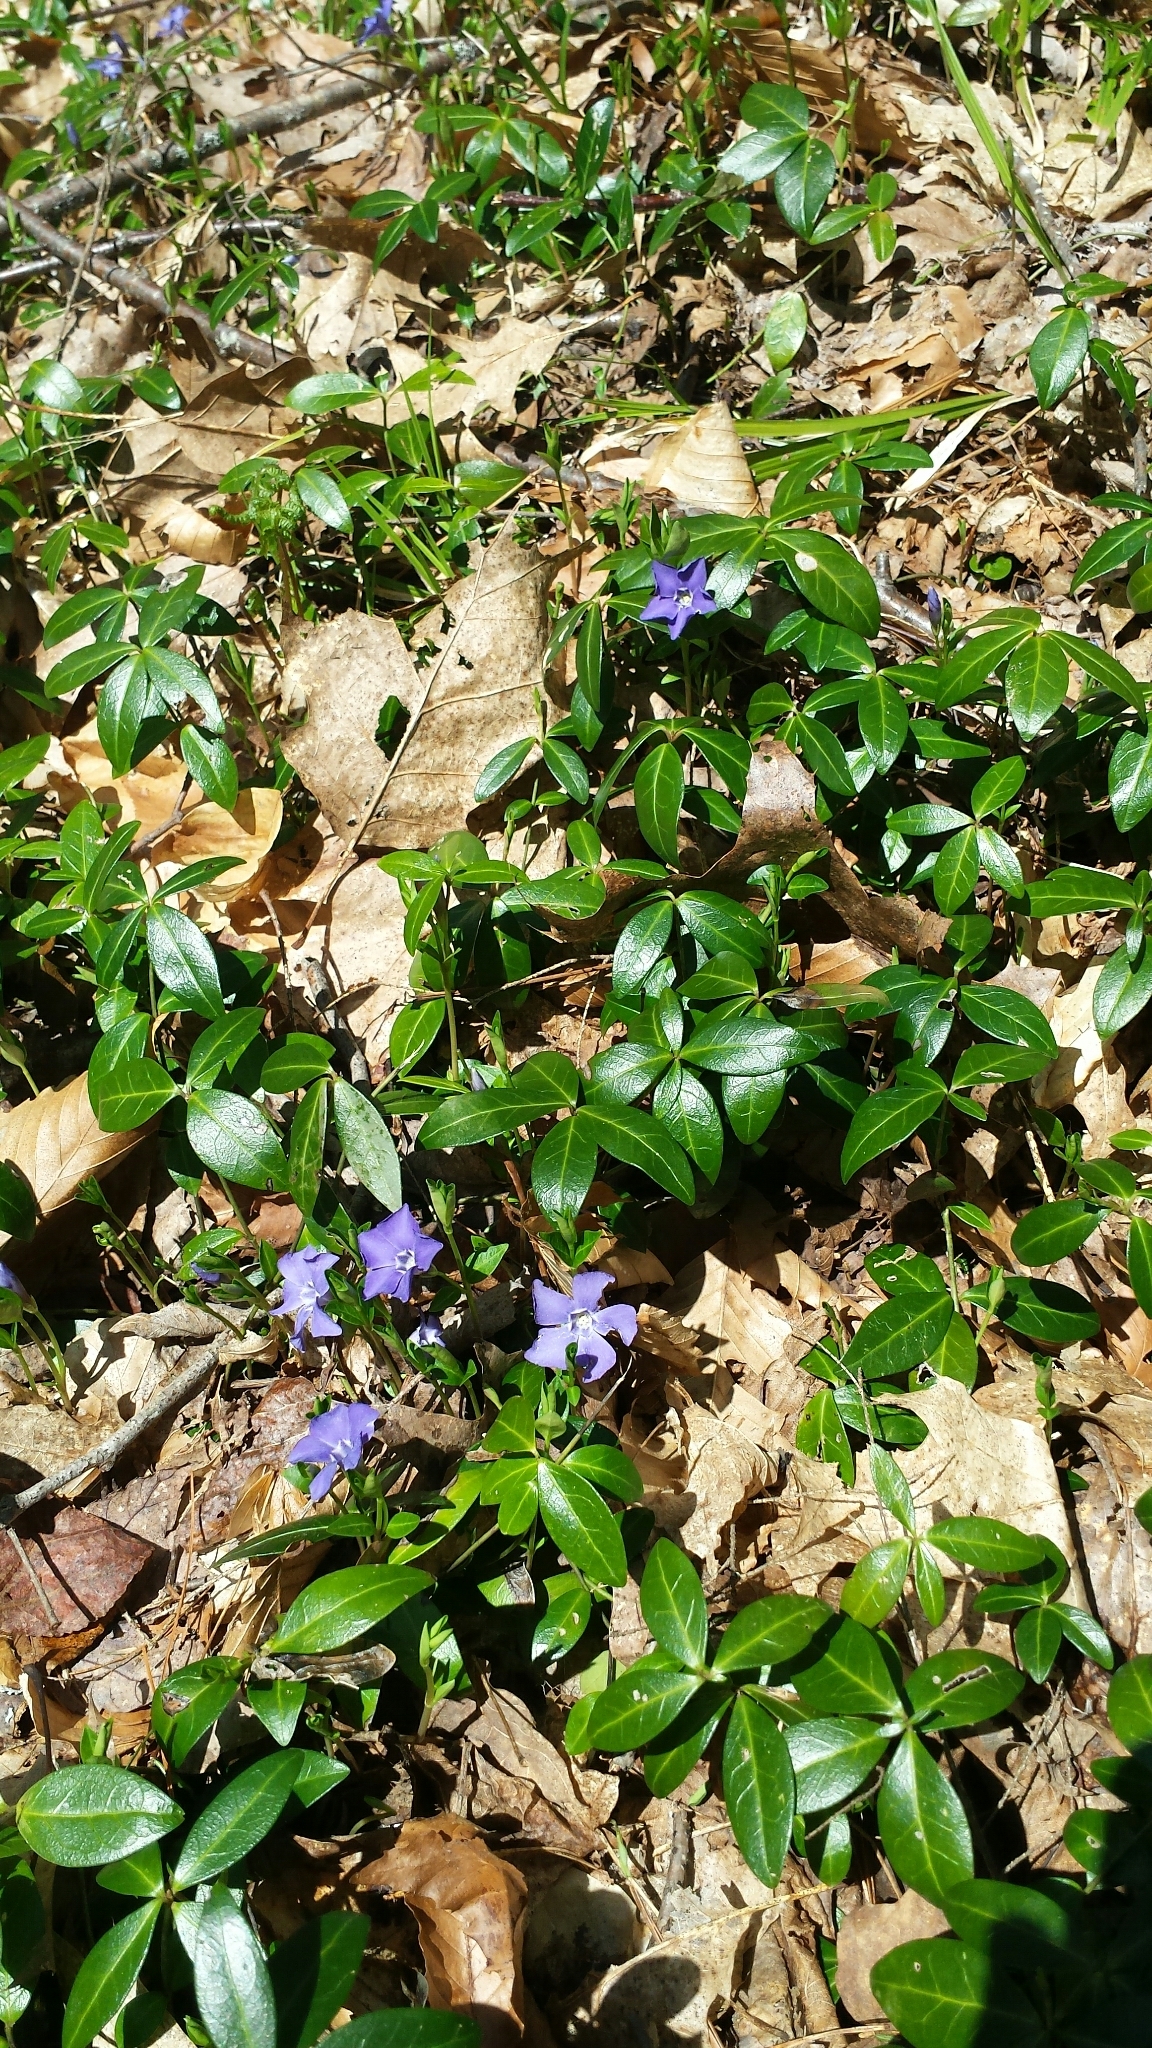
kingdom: Plantae
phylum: Tracheophyta
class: Magnoliopsida
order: Gentianales
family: Apocynaceae
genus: Vinca
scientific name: Vinca minor
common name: Lesser periwinkle
